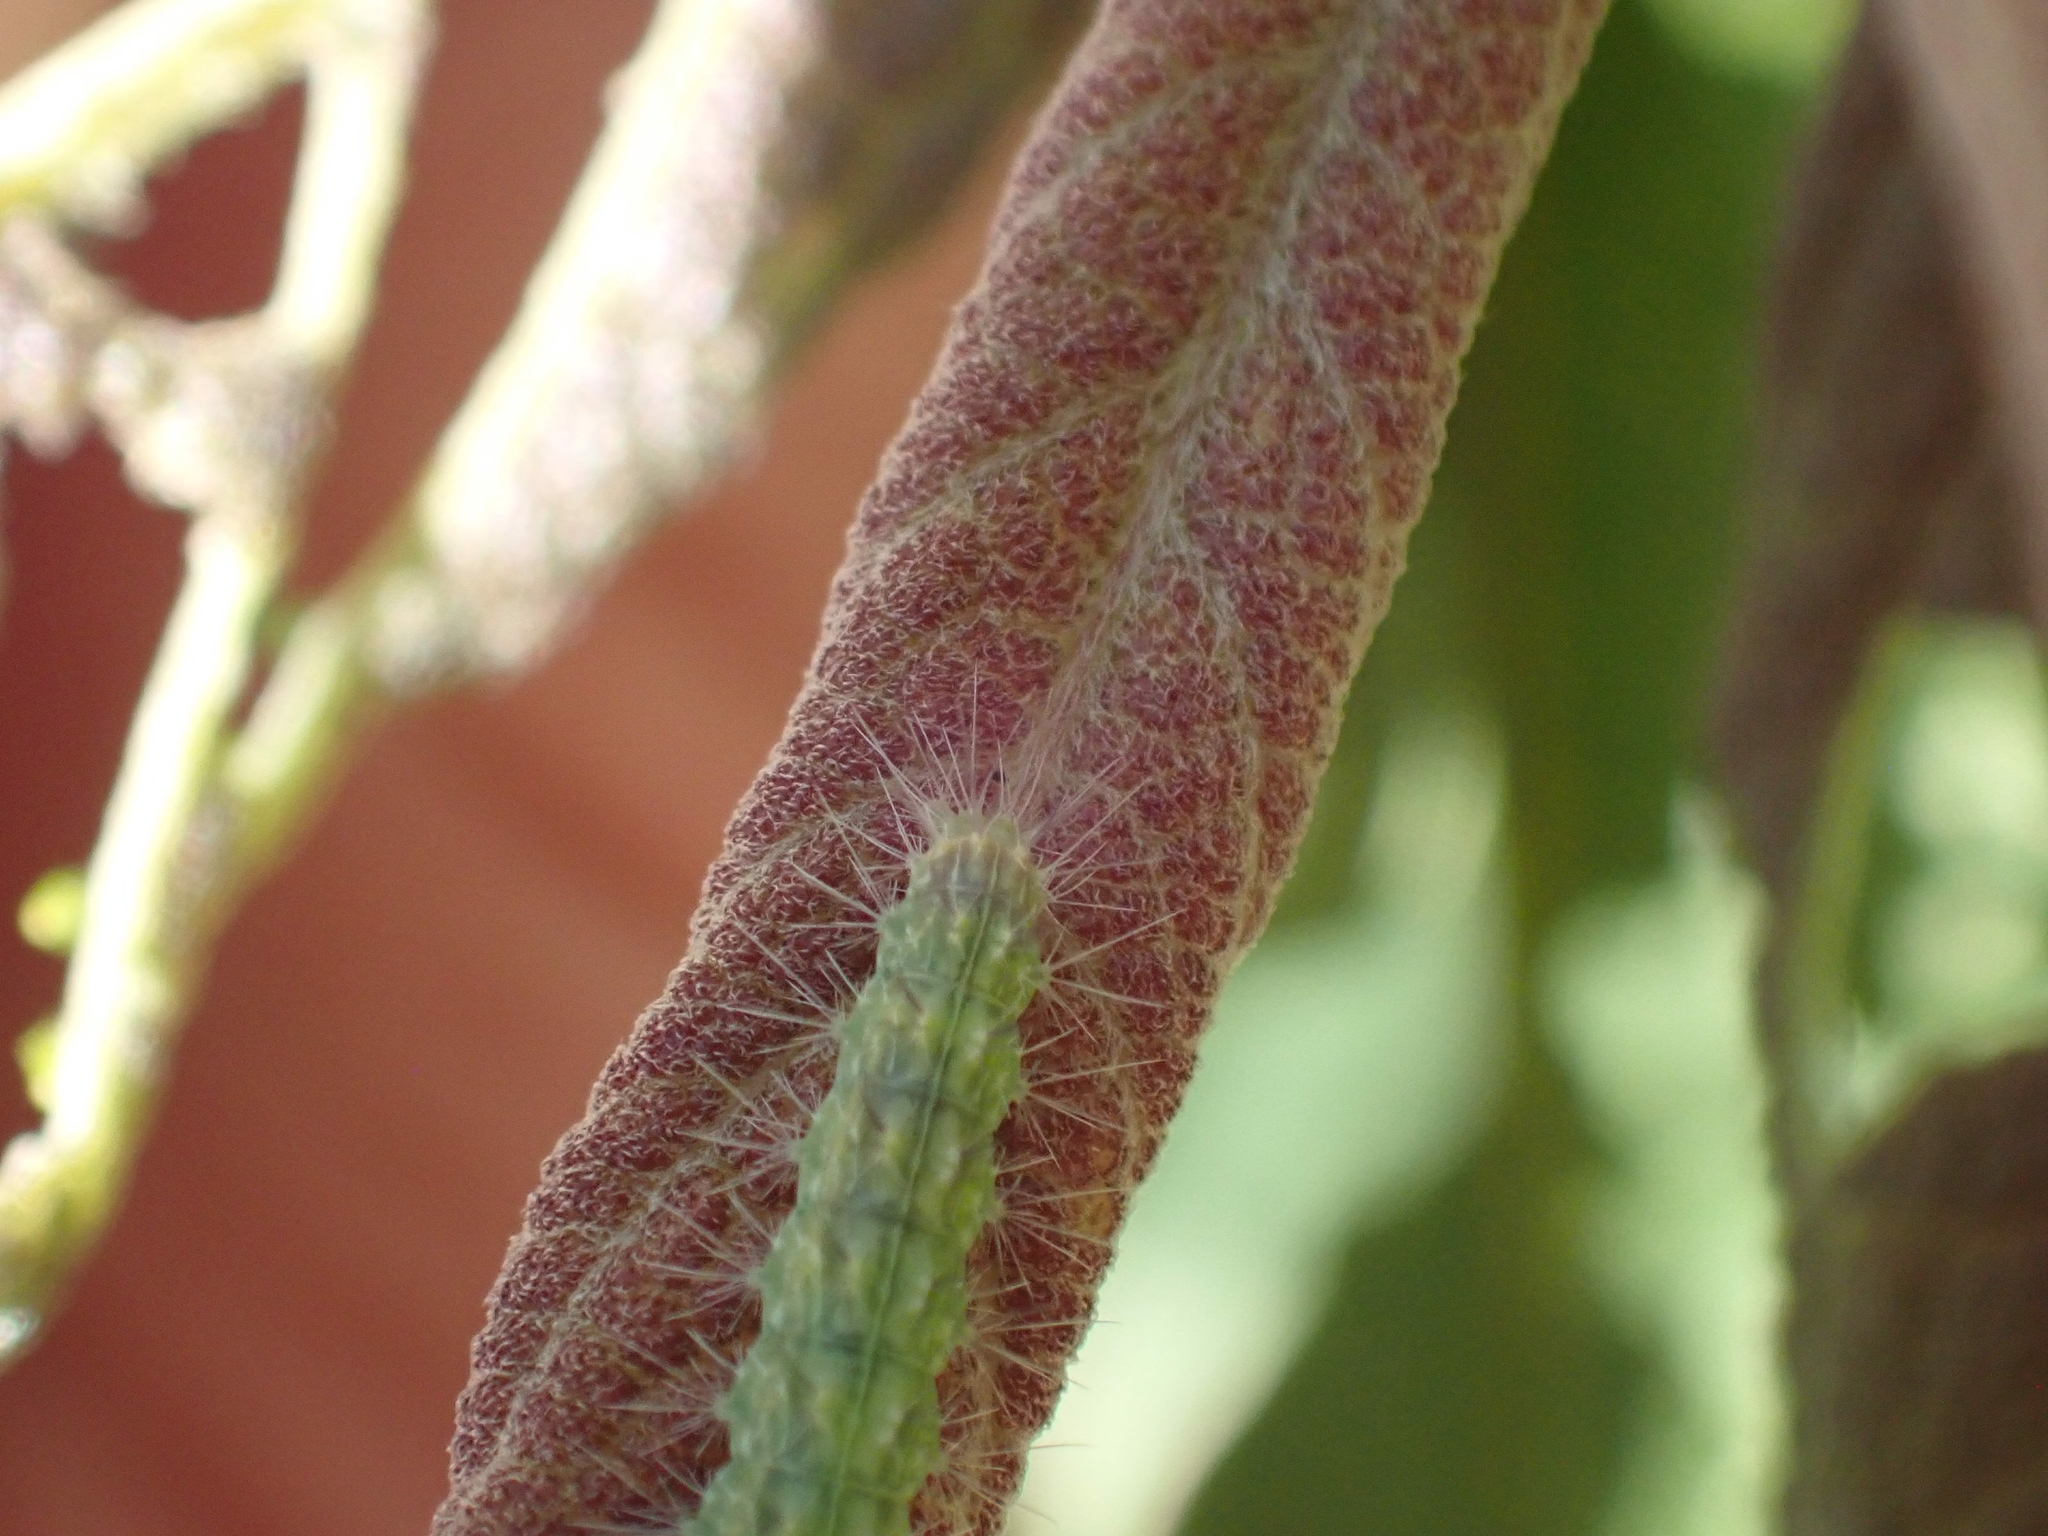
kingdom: Animalia
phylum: Arthropoda
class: Insecta
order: Lepidoptera
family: Pterophoridae
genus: Oidaematophorus
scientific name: Oidaematophorus eupatorii
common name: Eupatorium plume moth
